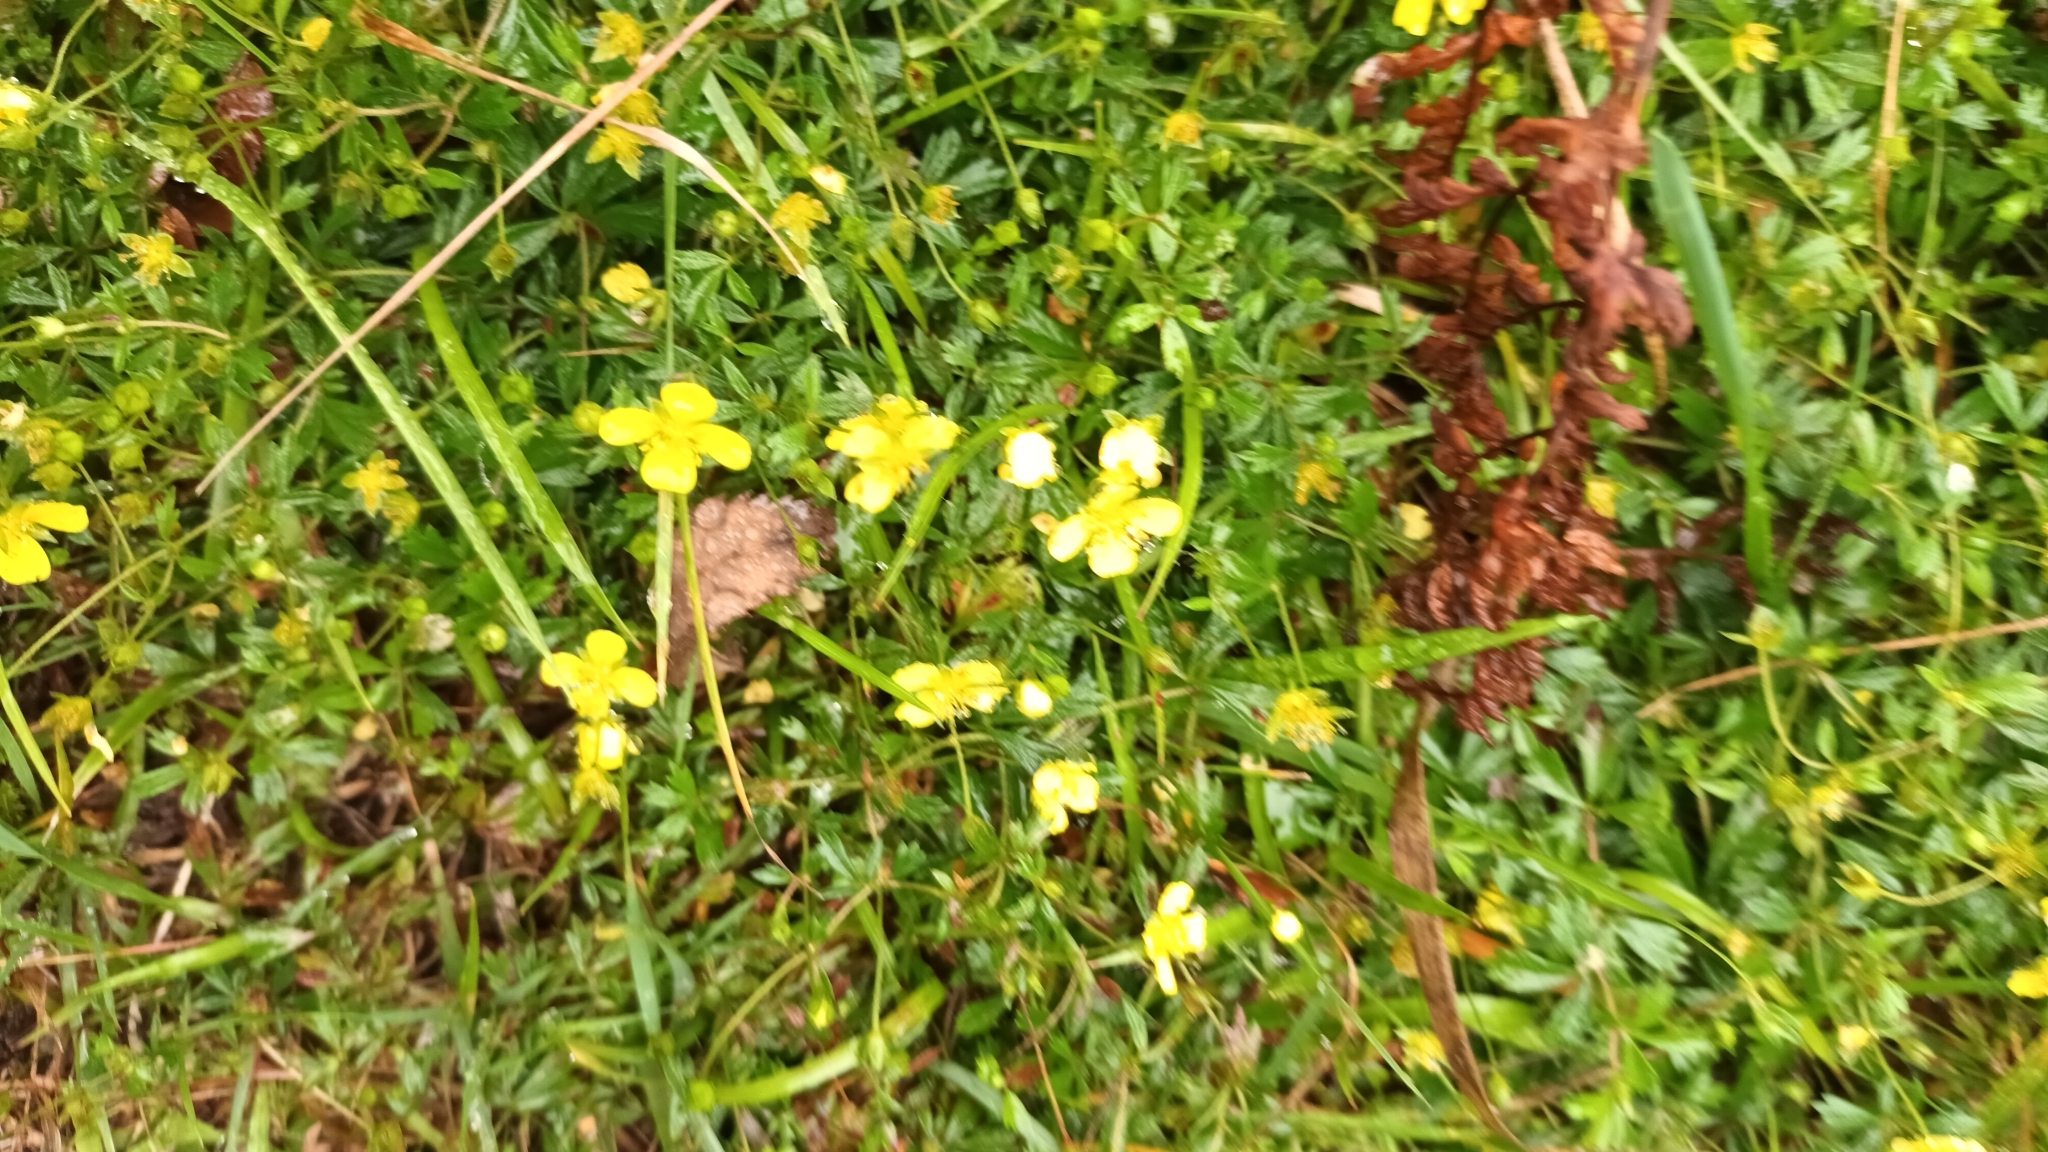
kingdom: Plantae
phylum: Tracheophyta
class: Magnoliopsida
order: Rosales
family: Rosaceae
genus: Potentilla
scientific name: Potentilla erecta
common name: Tormentil
